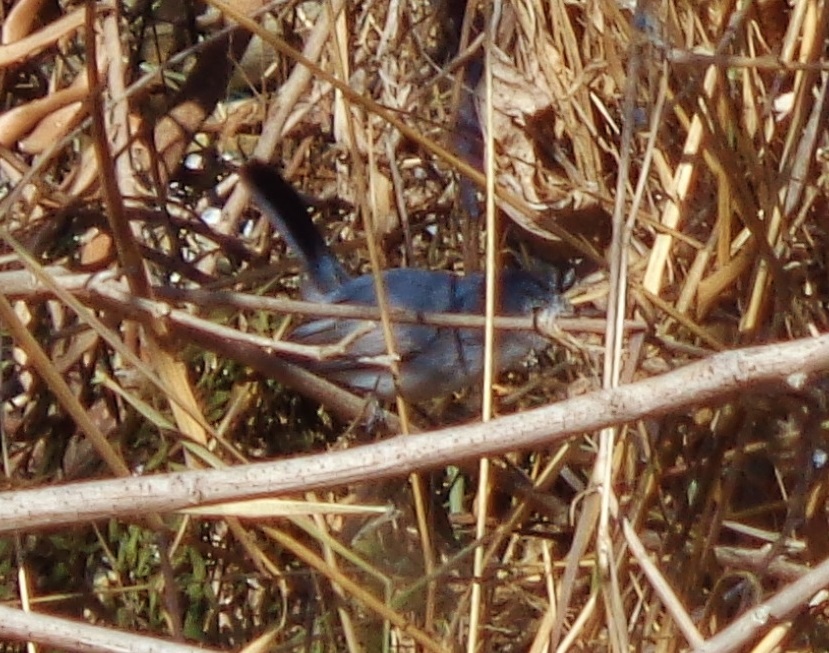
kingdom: Animalia
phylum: Chordata
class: Aves
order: Passeriformes
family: Polioptilidae
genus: Polioptila
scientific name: Polioptila caerulea
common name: Blue-gray gnatcatcher
